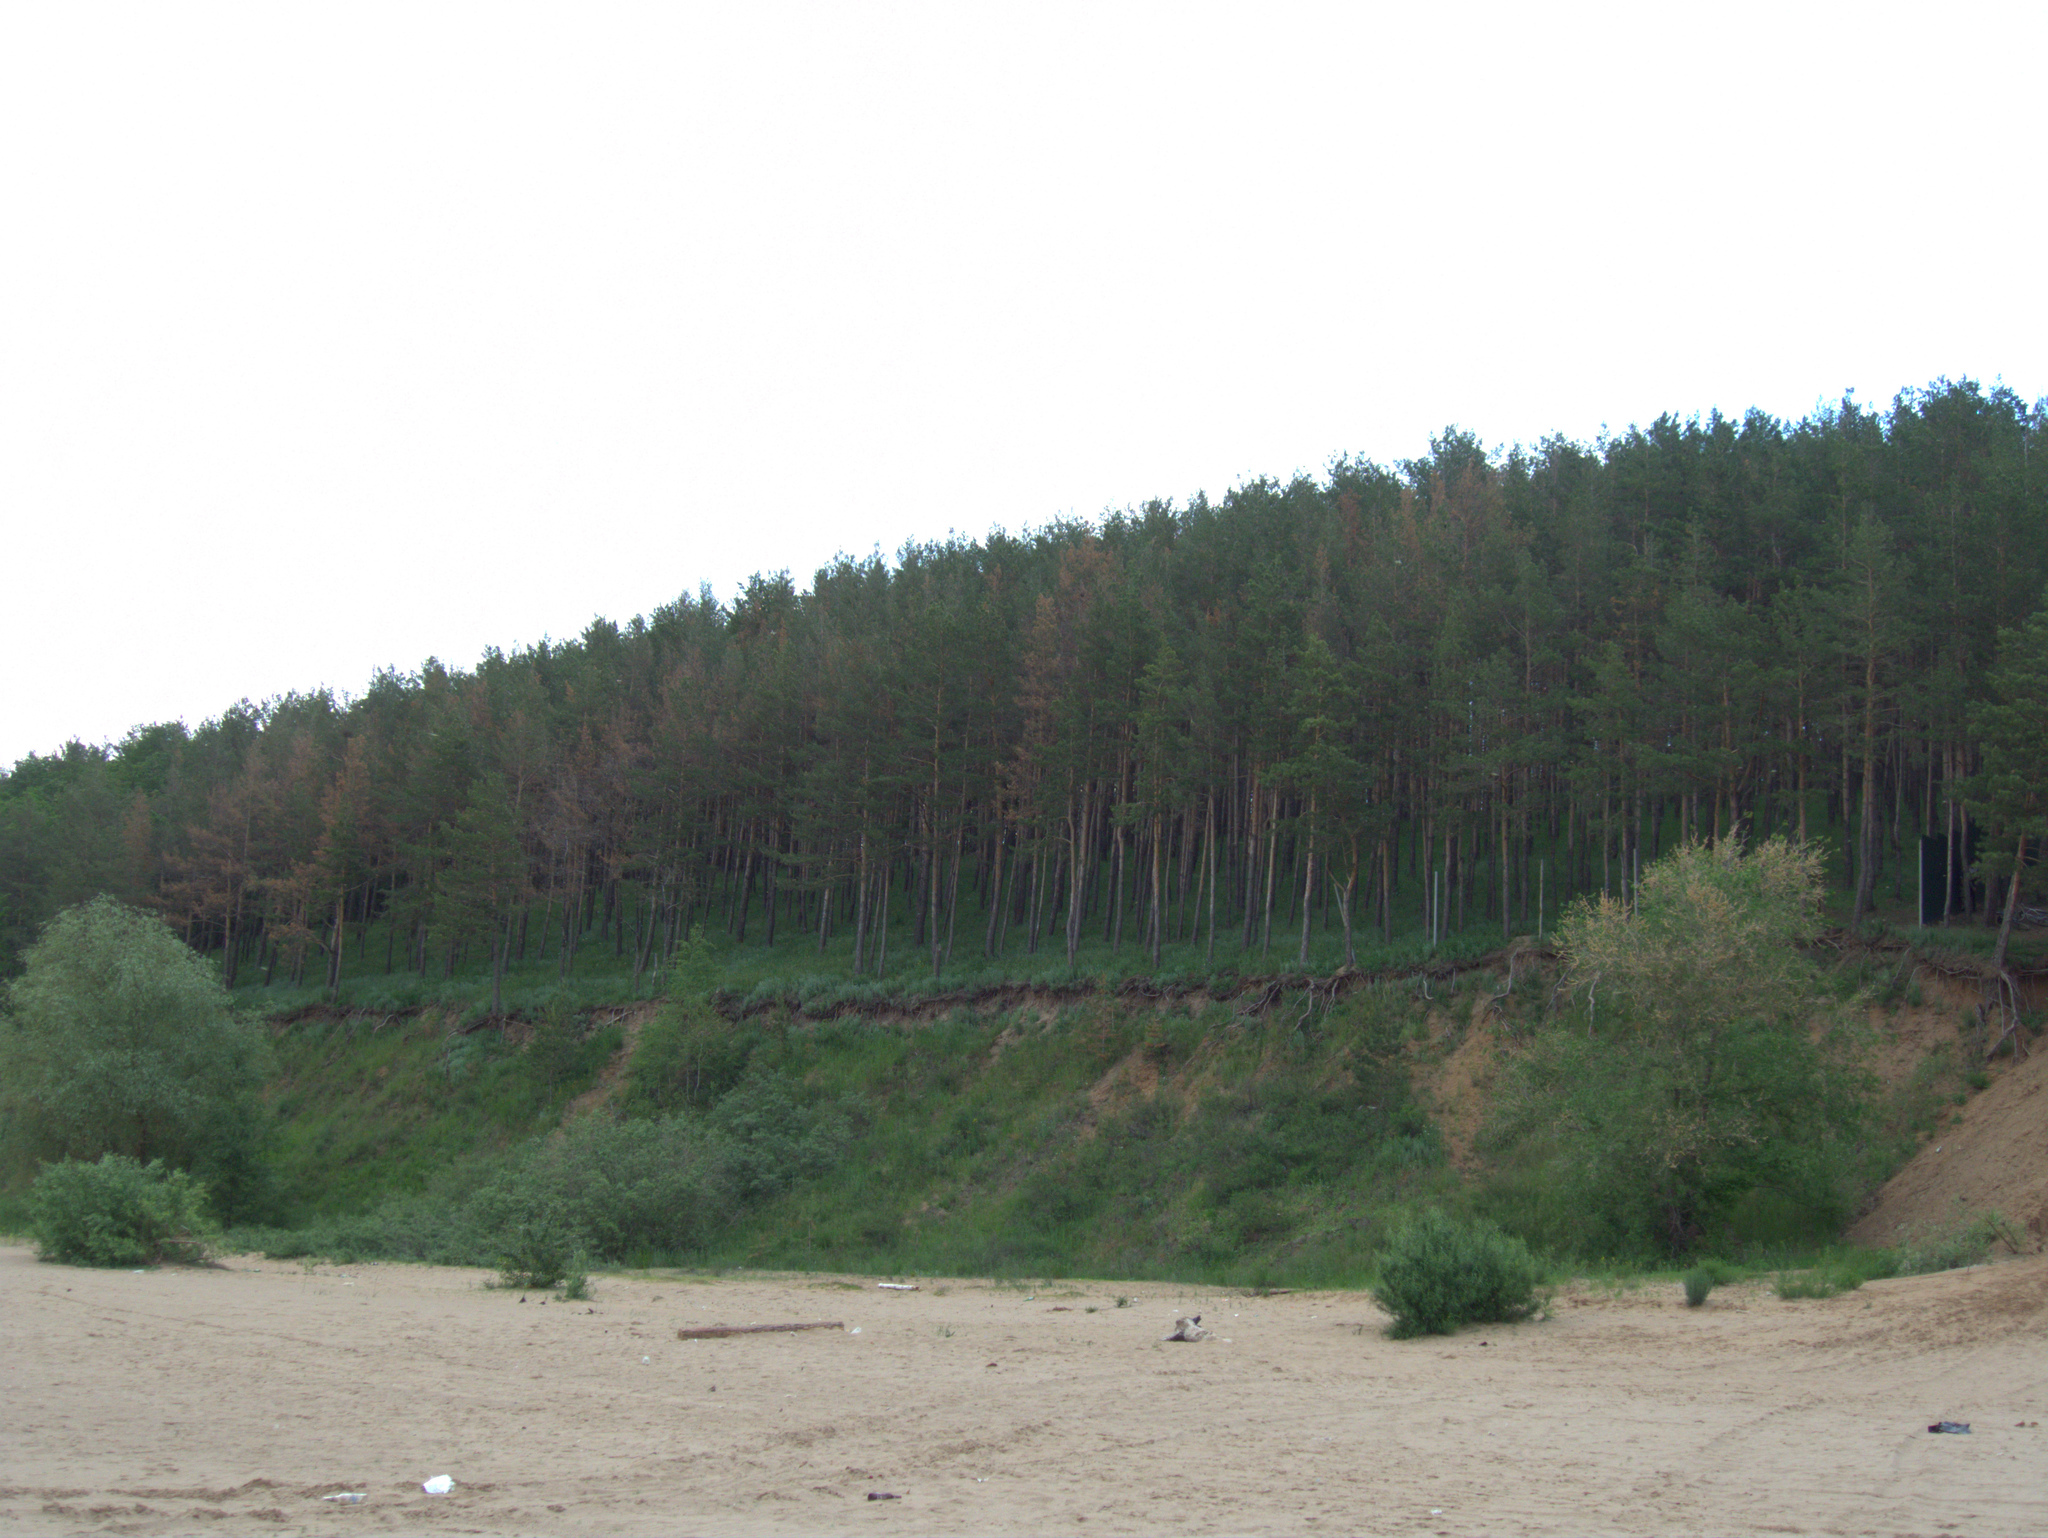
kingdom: Plantae
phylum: Tracheophyta
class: Pinopsida
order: Pinales
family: Pinaceae
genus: Pinus
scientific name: Pinus sylvestris
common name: Scots pine
